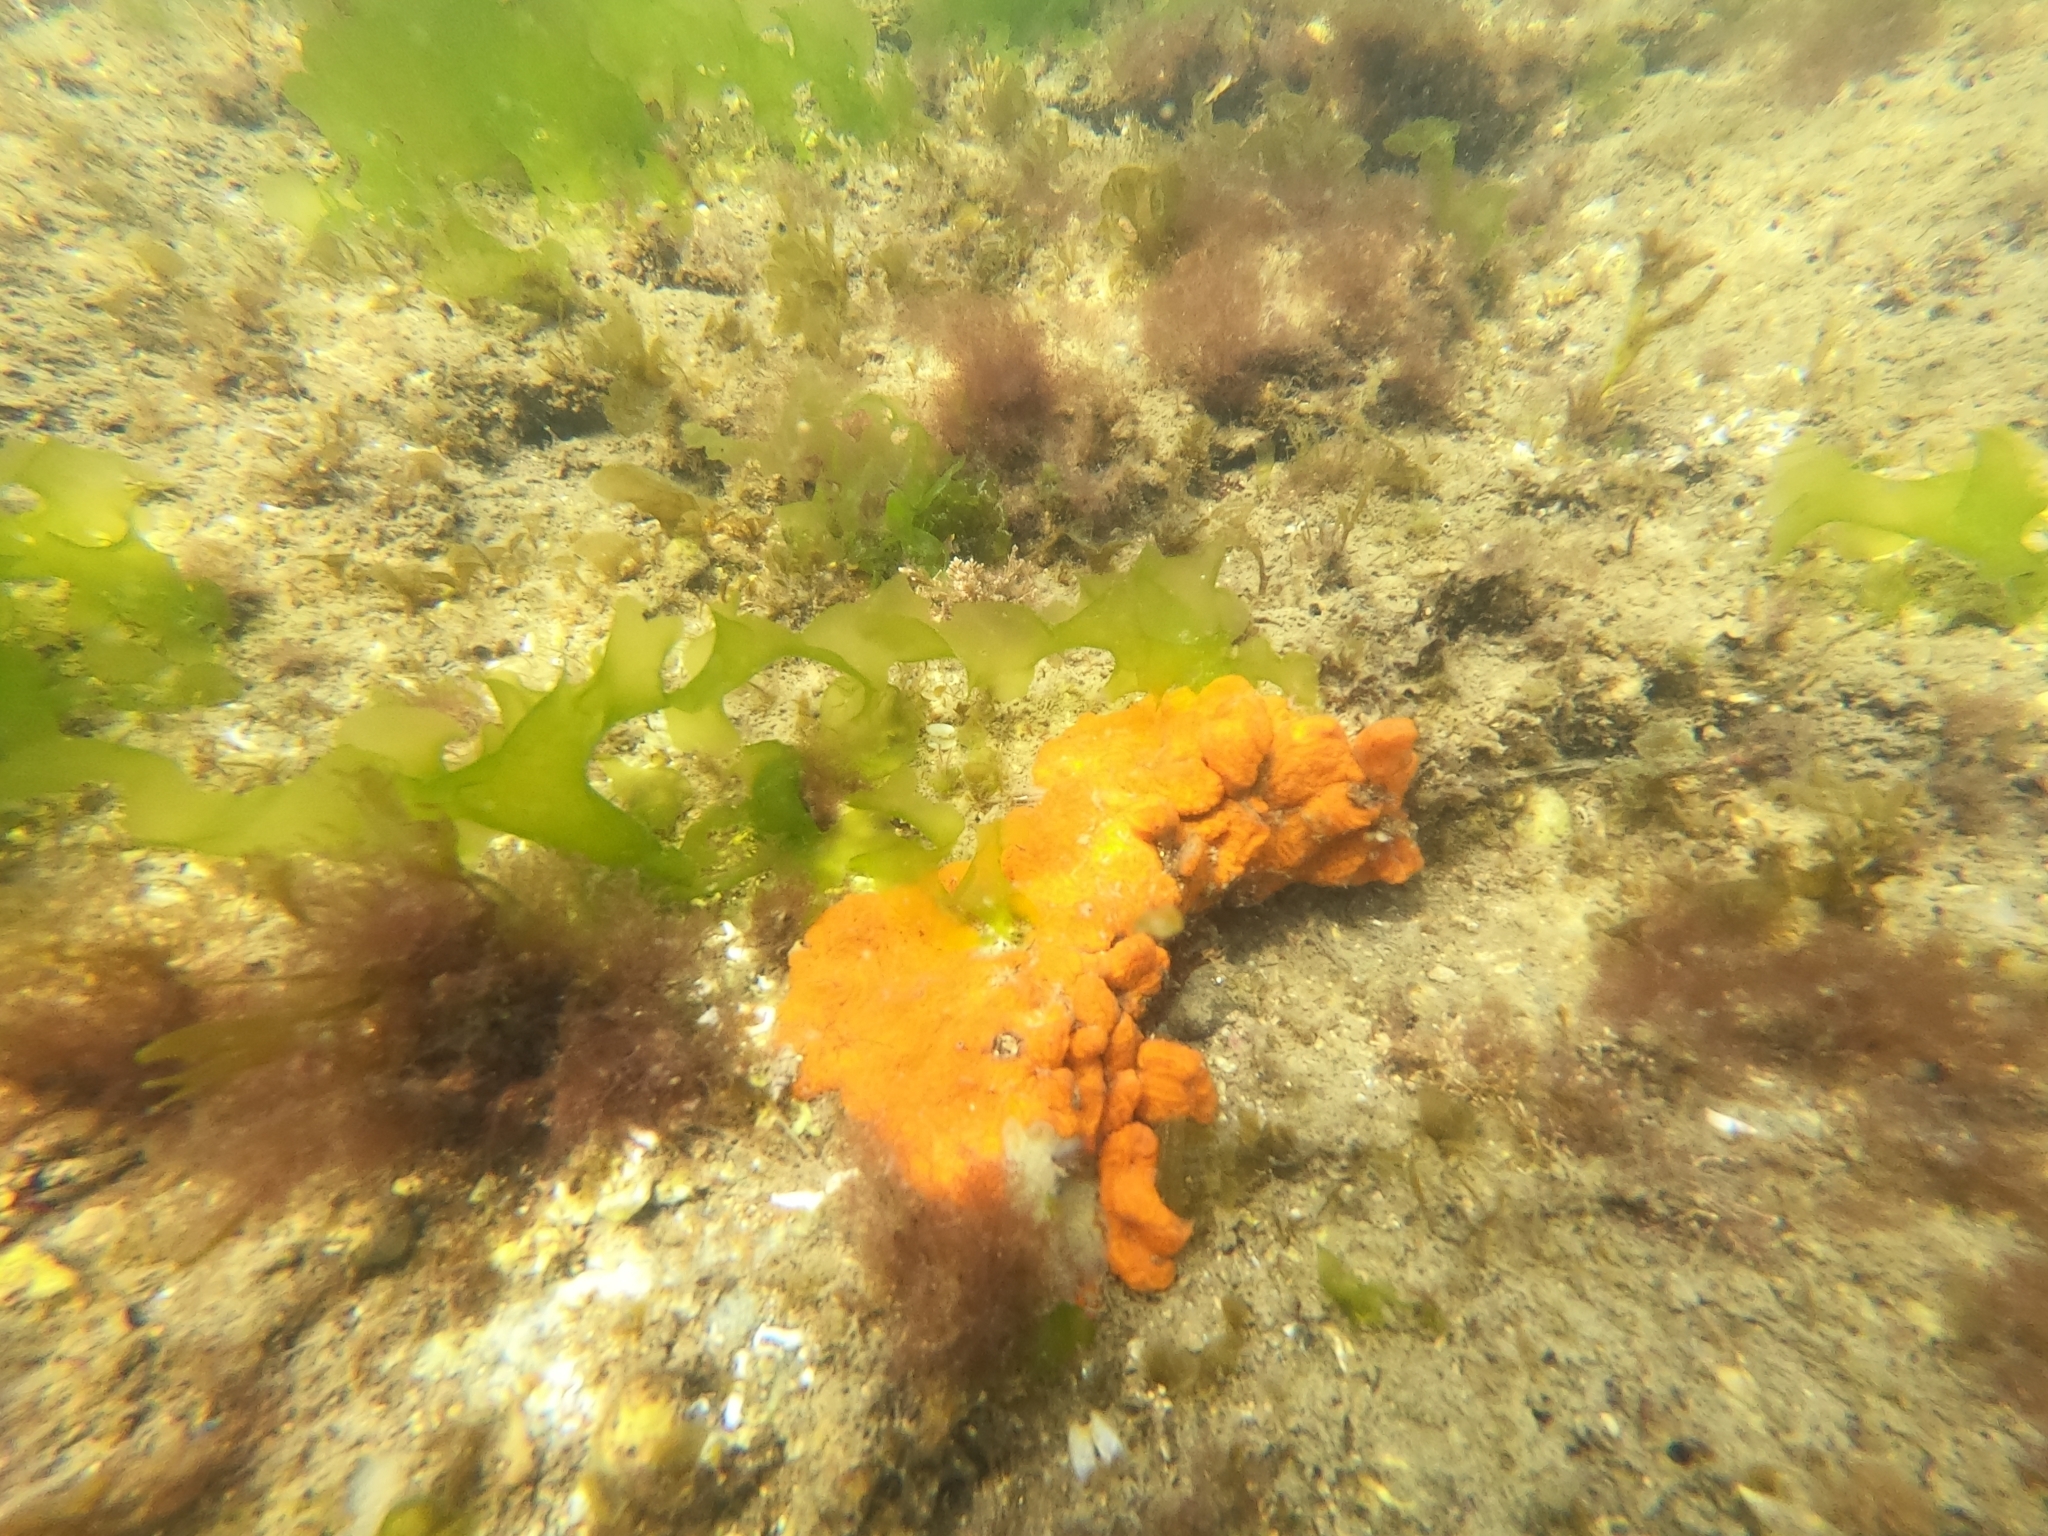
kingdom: Animalia
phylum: Chordata
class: Ascidiacea
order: Stolidobranchia
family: Styelidae
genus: Botrylloides
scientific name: Botrylloides violaceus
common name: Colonial sea squirt
